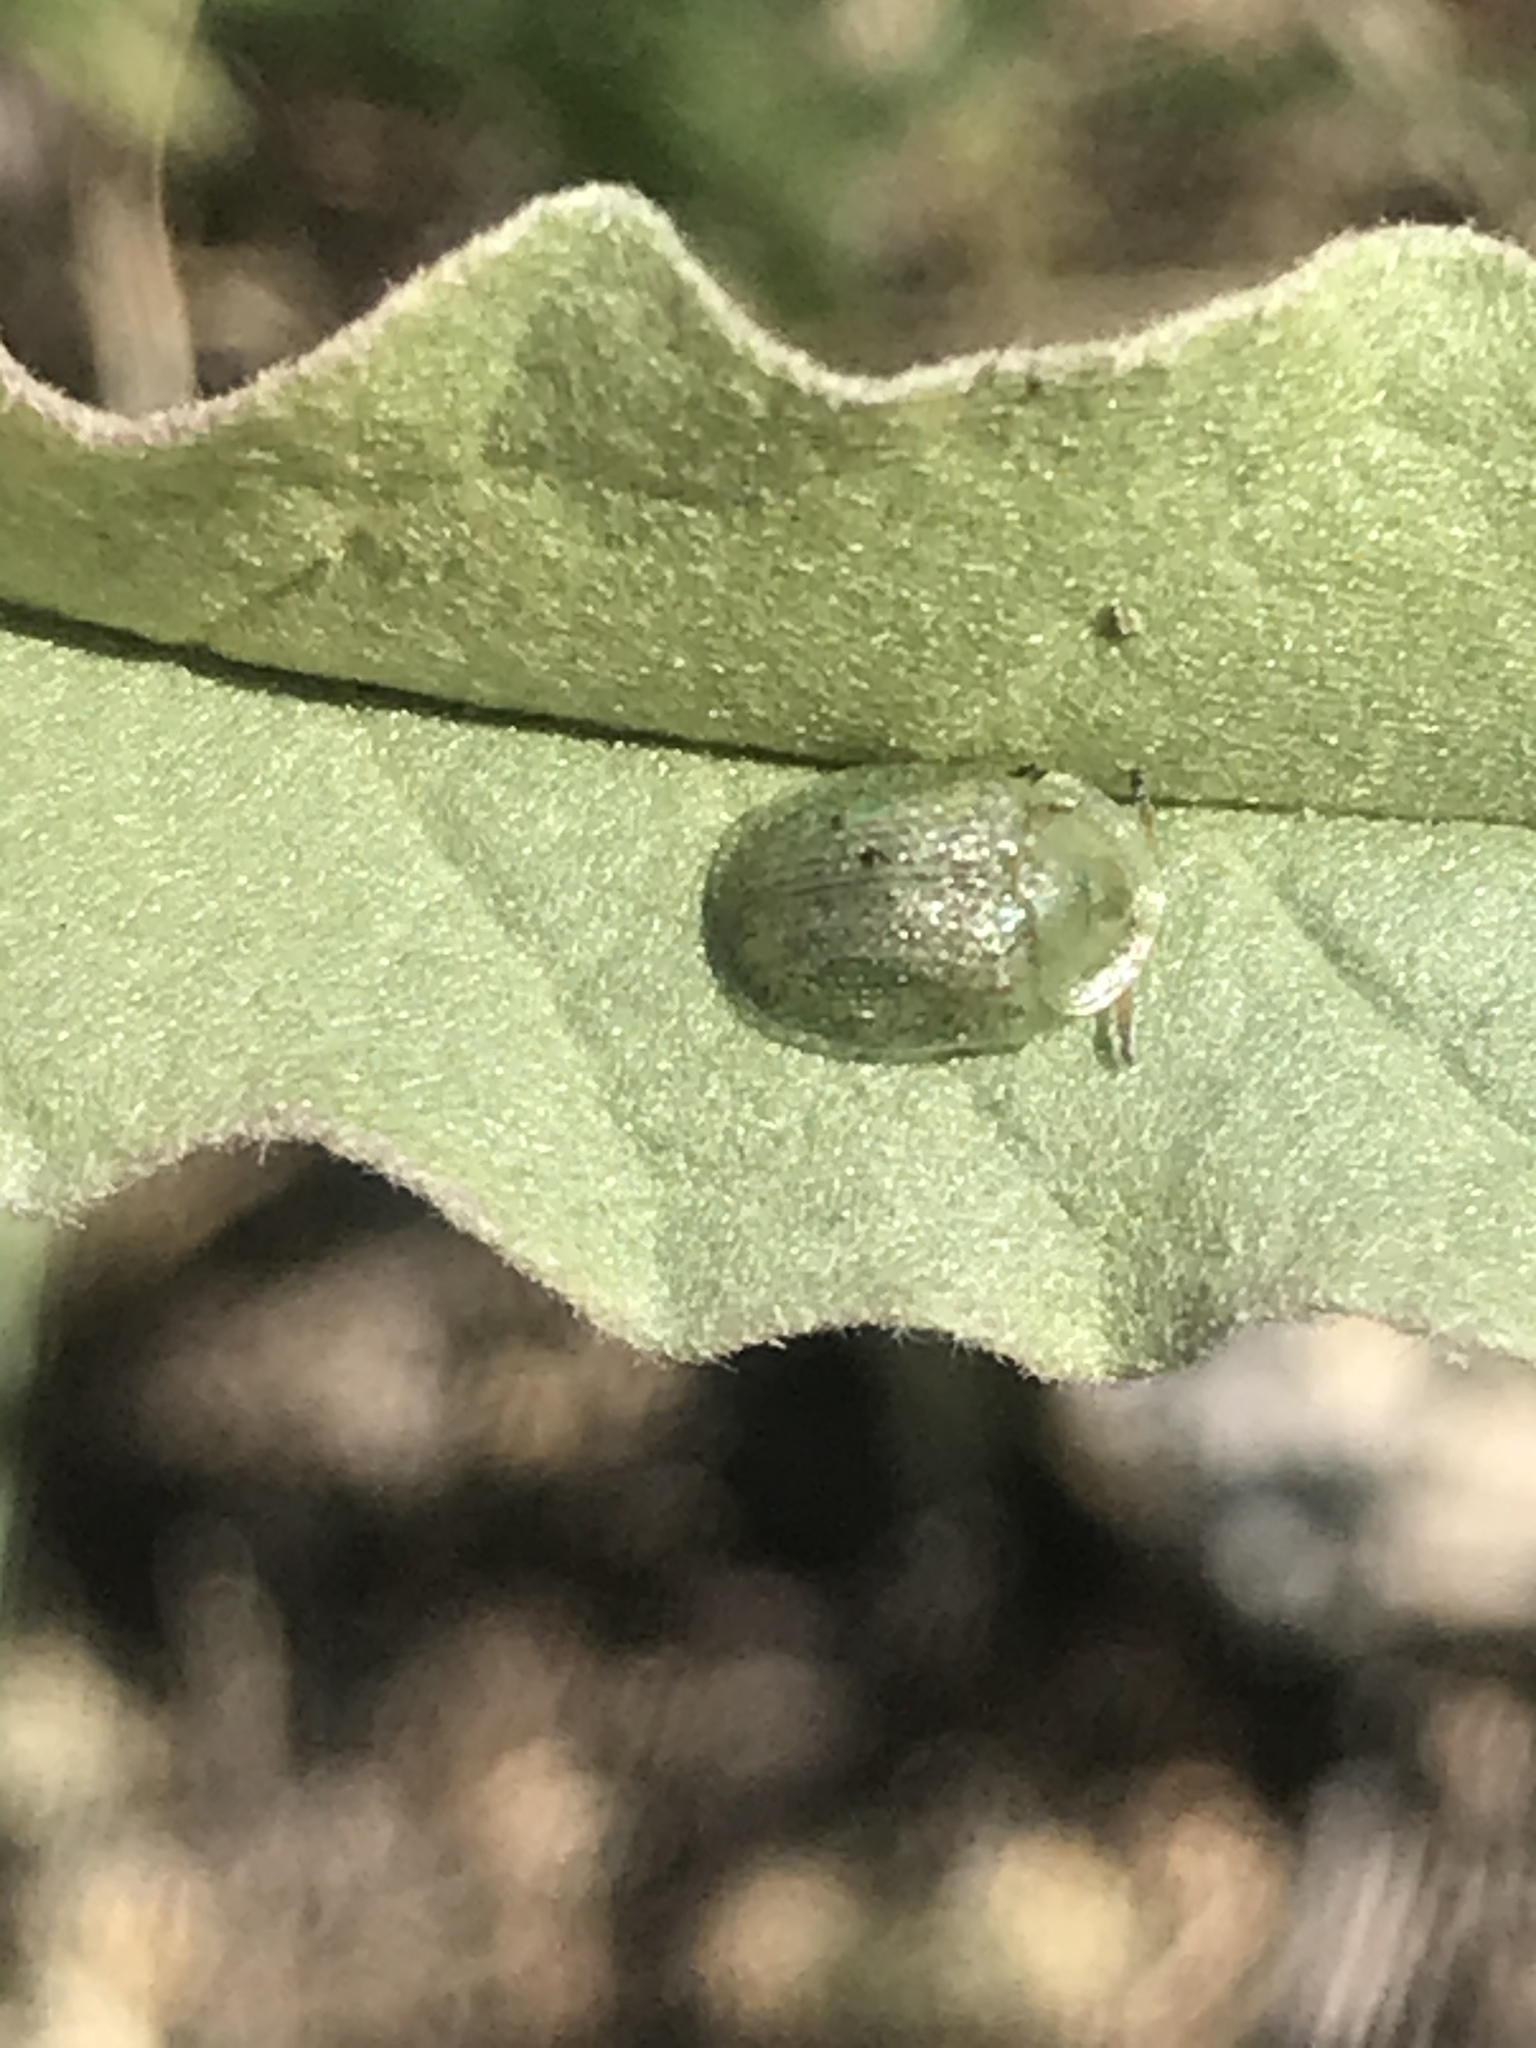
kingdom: Animalia
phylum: Arthropoda
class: Insecta
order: Coleoptera
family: Chrysomelidae
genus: Gratiana
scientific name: Gratiana pallidula
